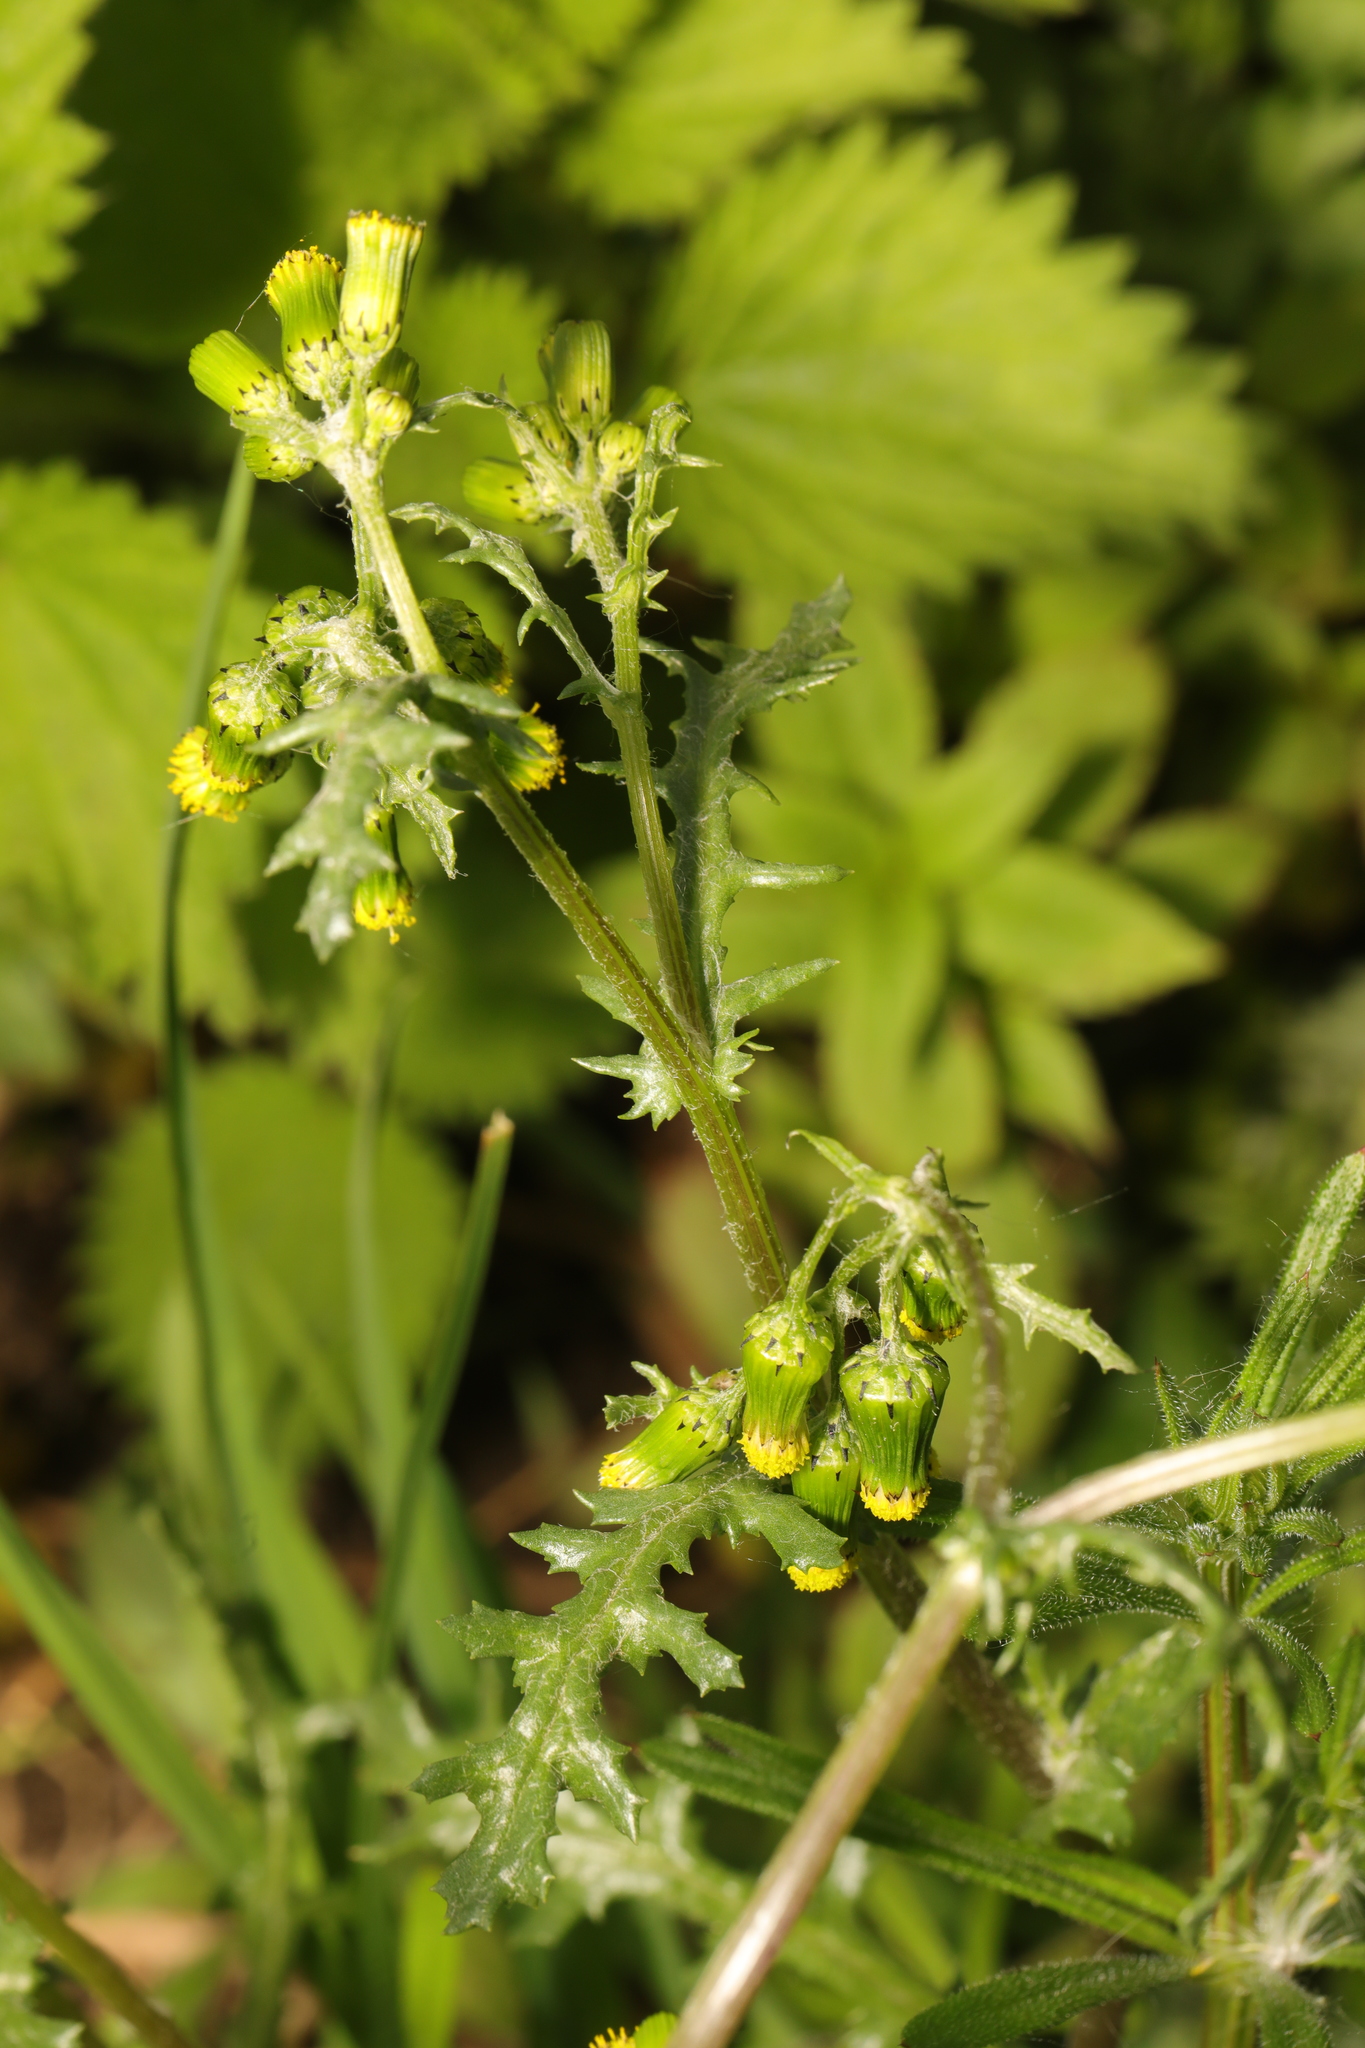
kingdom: Plantae
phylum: Tracheophyta
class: Magnoliopsida
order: Asterales
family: Asteraceae
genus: Senecio
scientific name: Senecio vulgaris
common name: Old-man-in-the-spring
